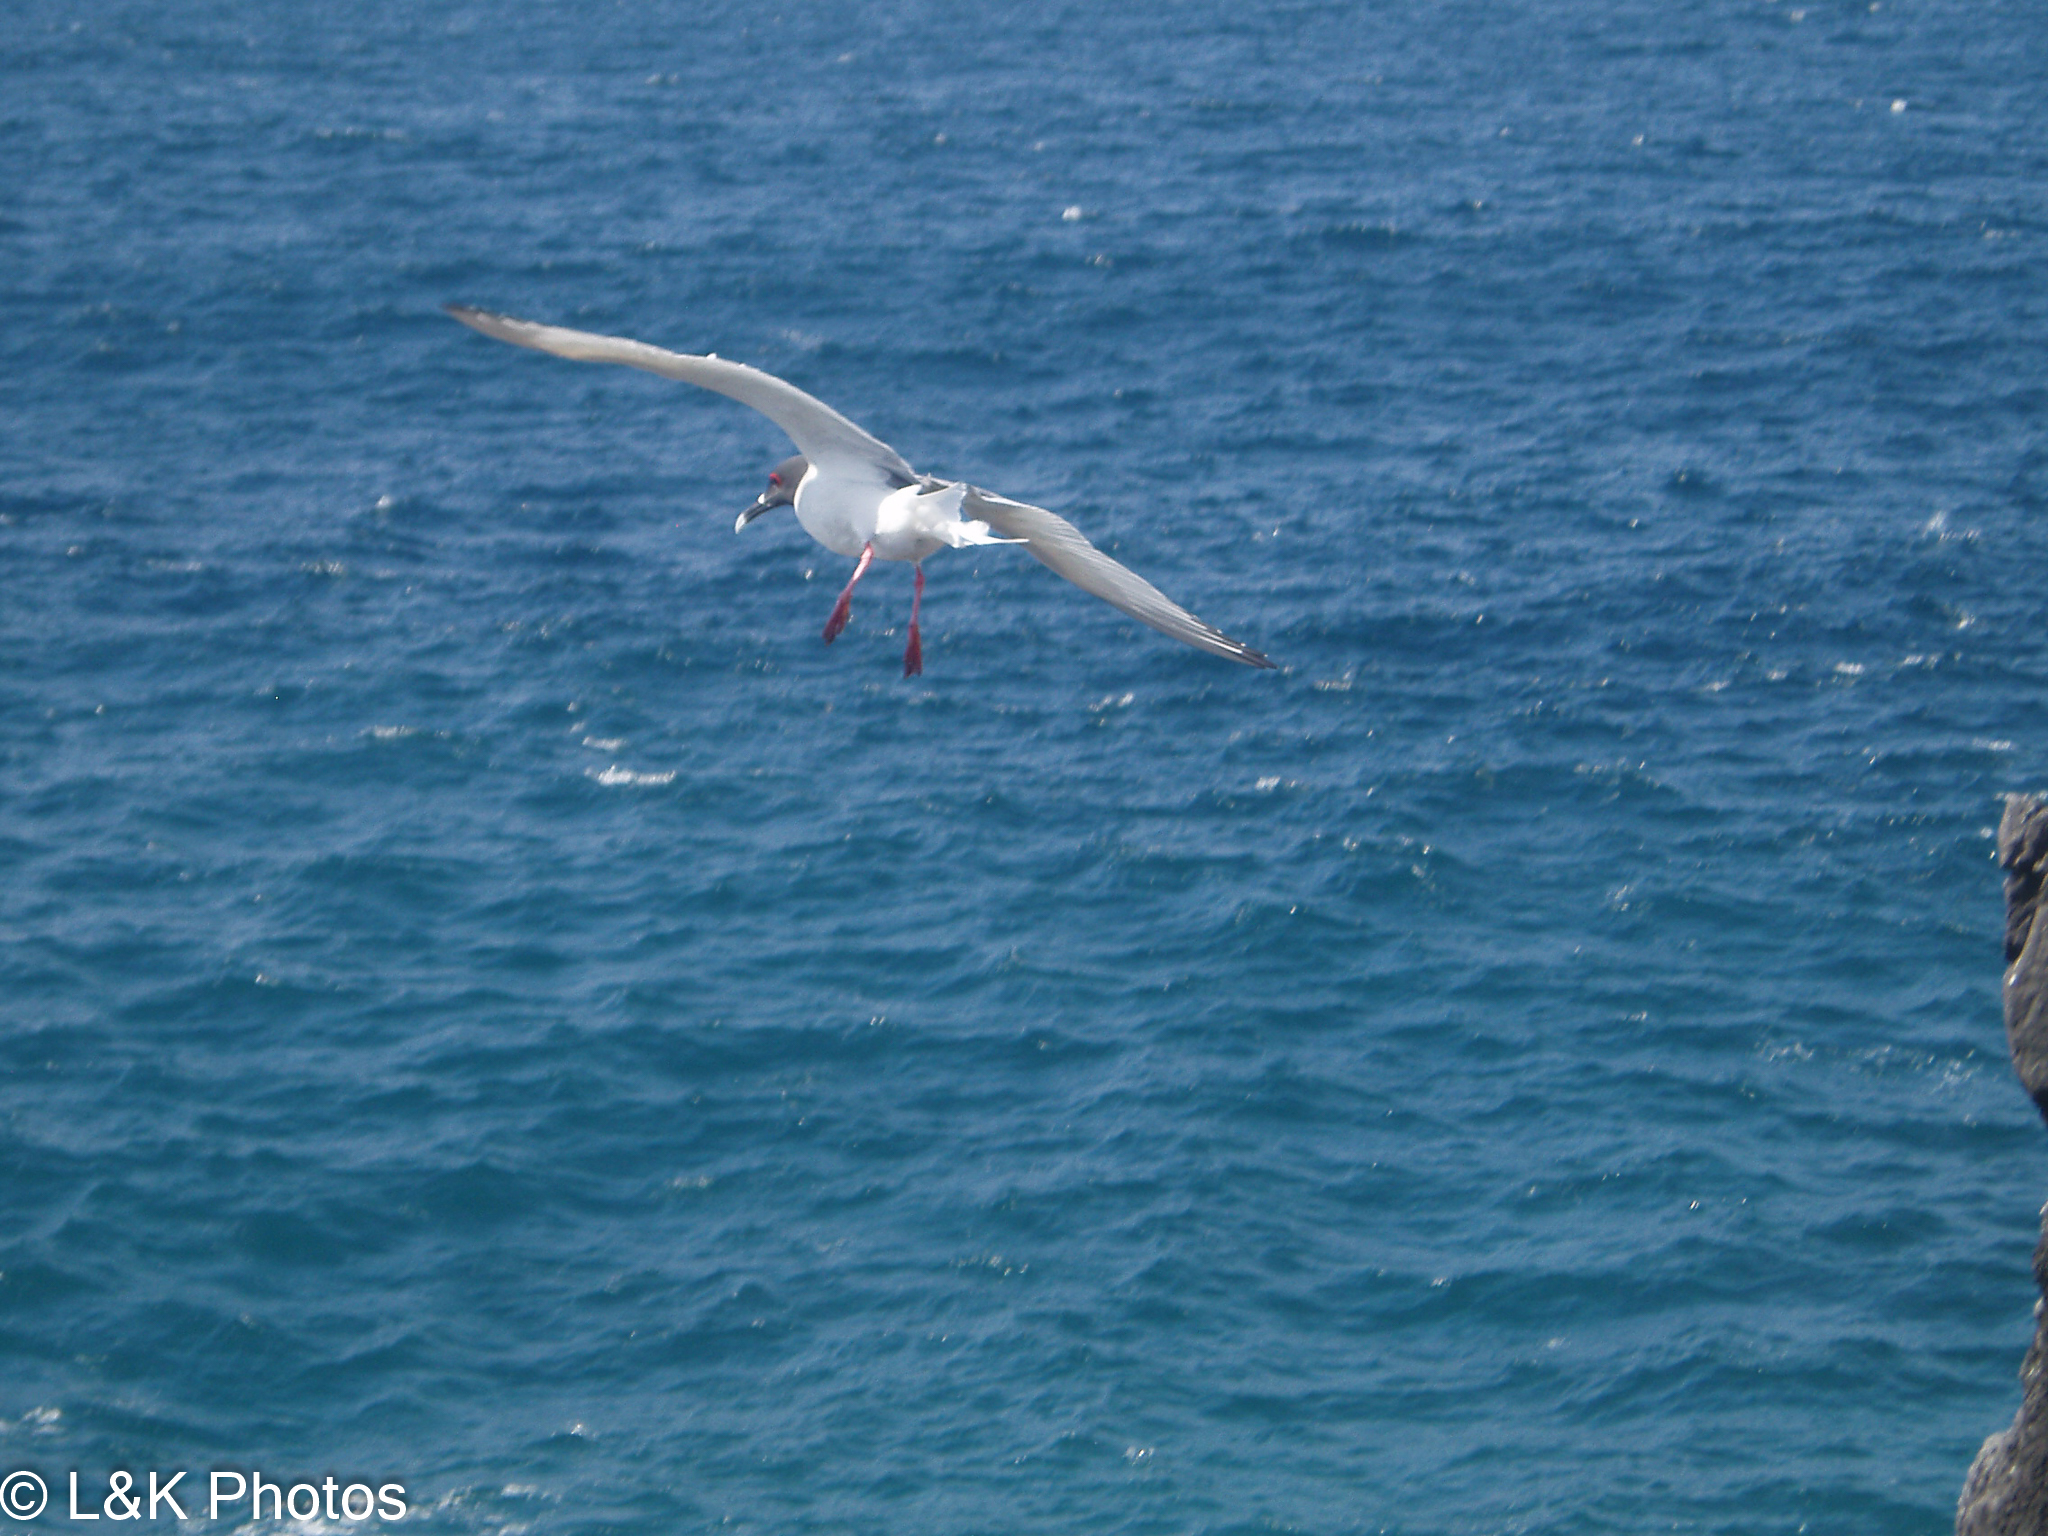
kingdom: Animalia
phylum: Chordata
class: Aves
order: Charadriiformes
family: Laridae
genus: Creagrus
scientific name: Creagrus furcatus
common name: Swallow-tailed gull
